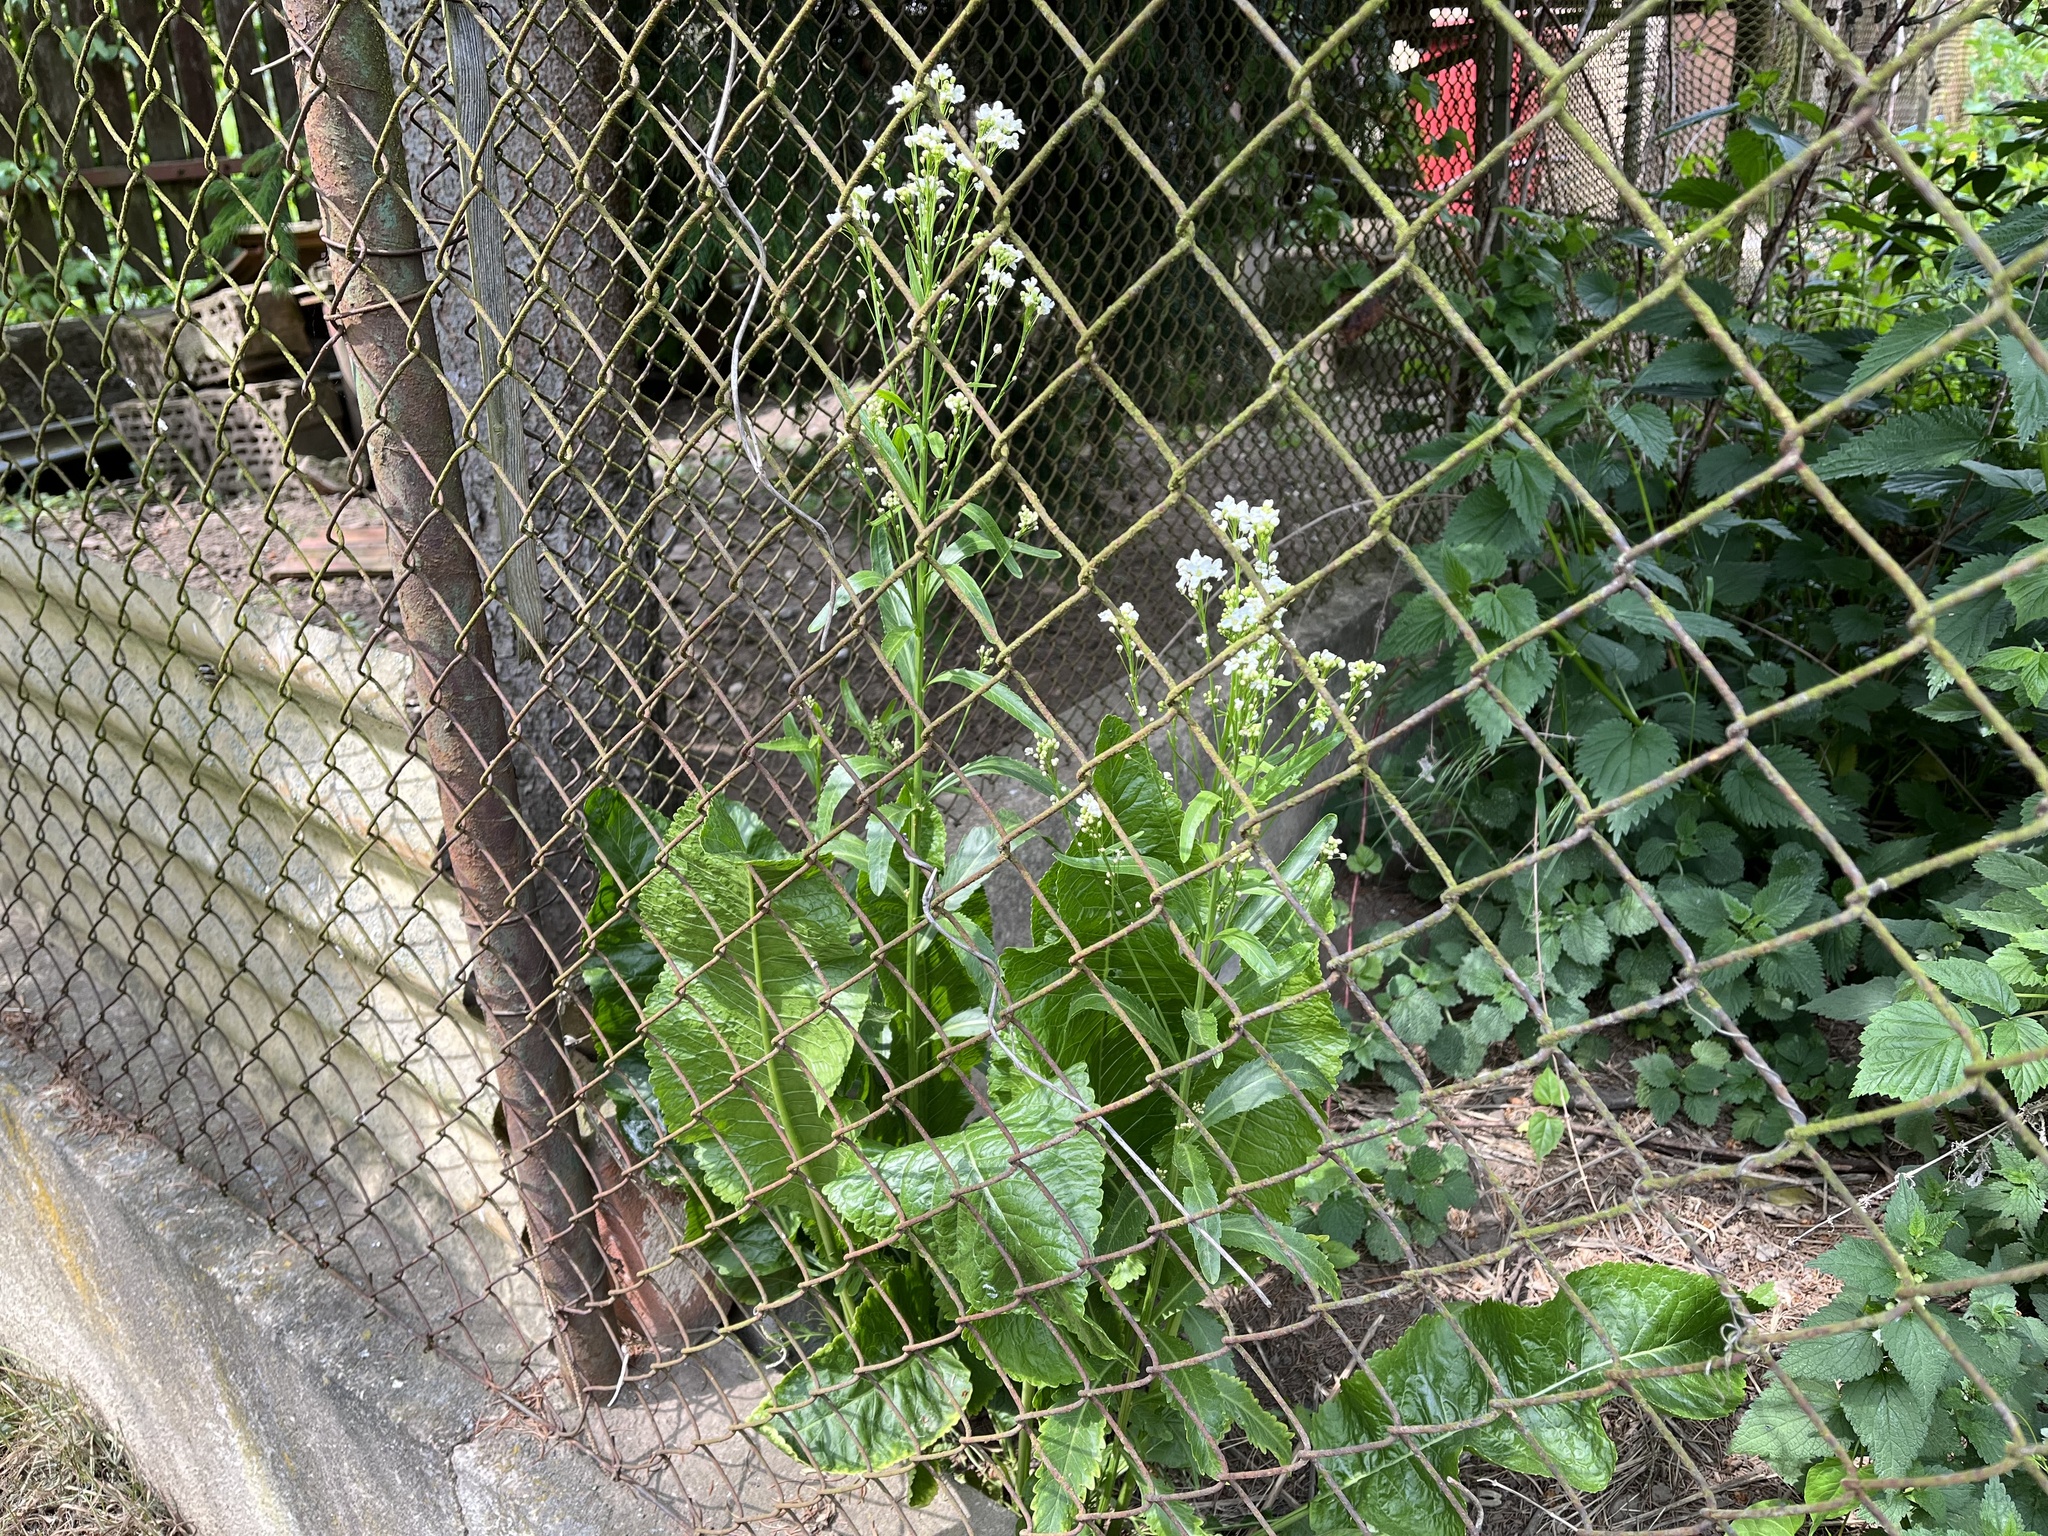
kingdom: Plantae
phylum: Tracheophyta
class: Magnoliopsida
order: Brassicales
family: Brassicaceae
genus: Armoracia
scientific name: Armoracia rusticana
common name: Horseradish
